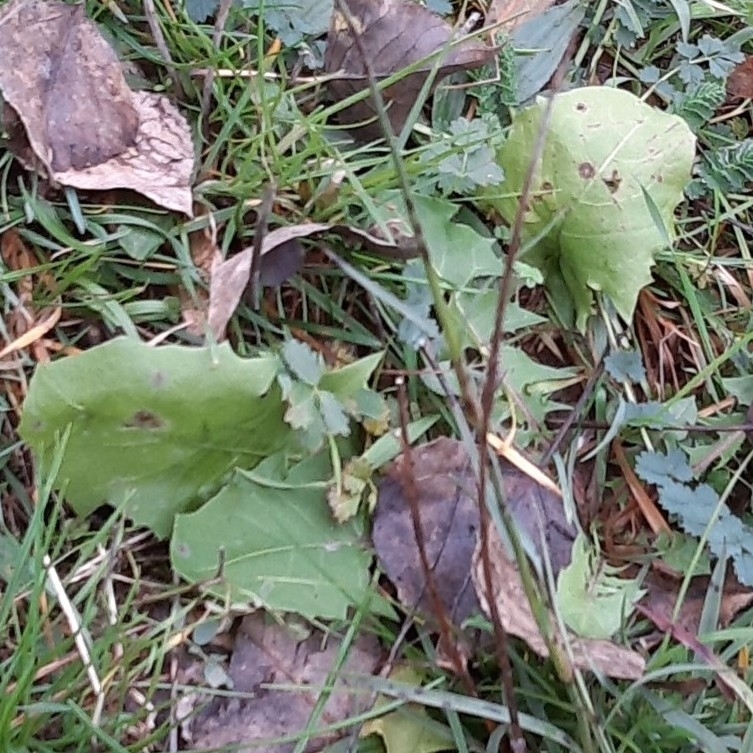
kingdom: Plantae
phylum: Tracheophyta
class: Magnoliopsida
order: Asterales
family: Asteraceae
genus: Taraxacum
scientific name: Taraxacum
